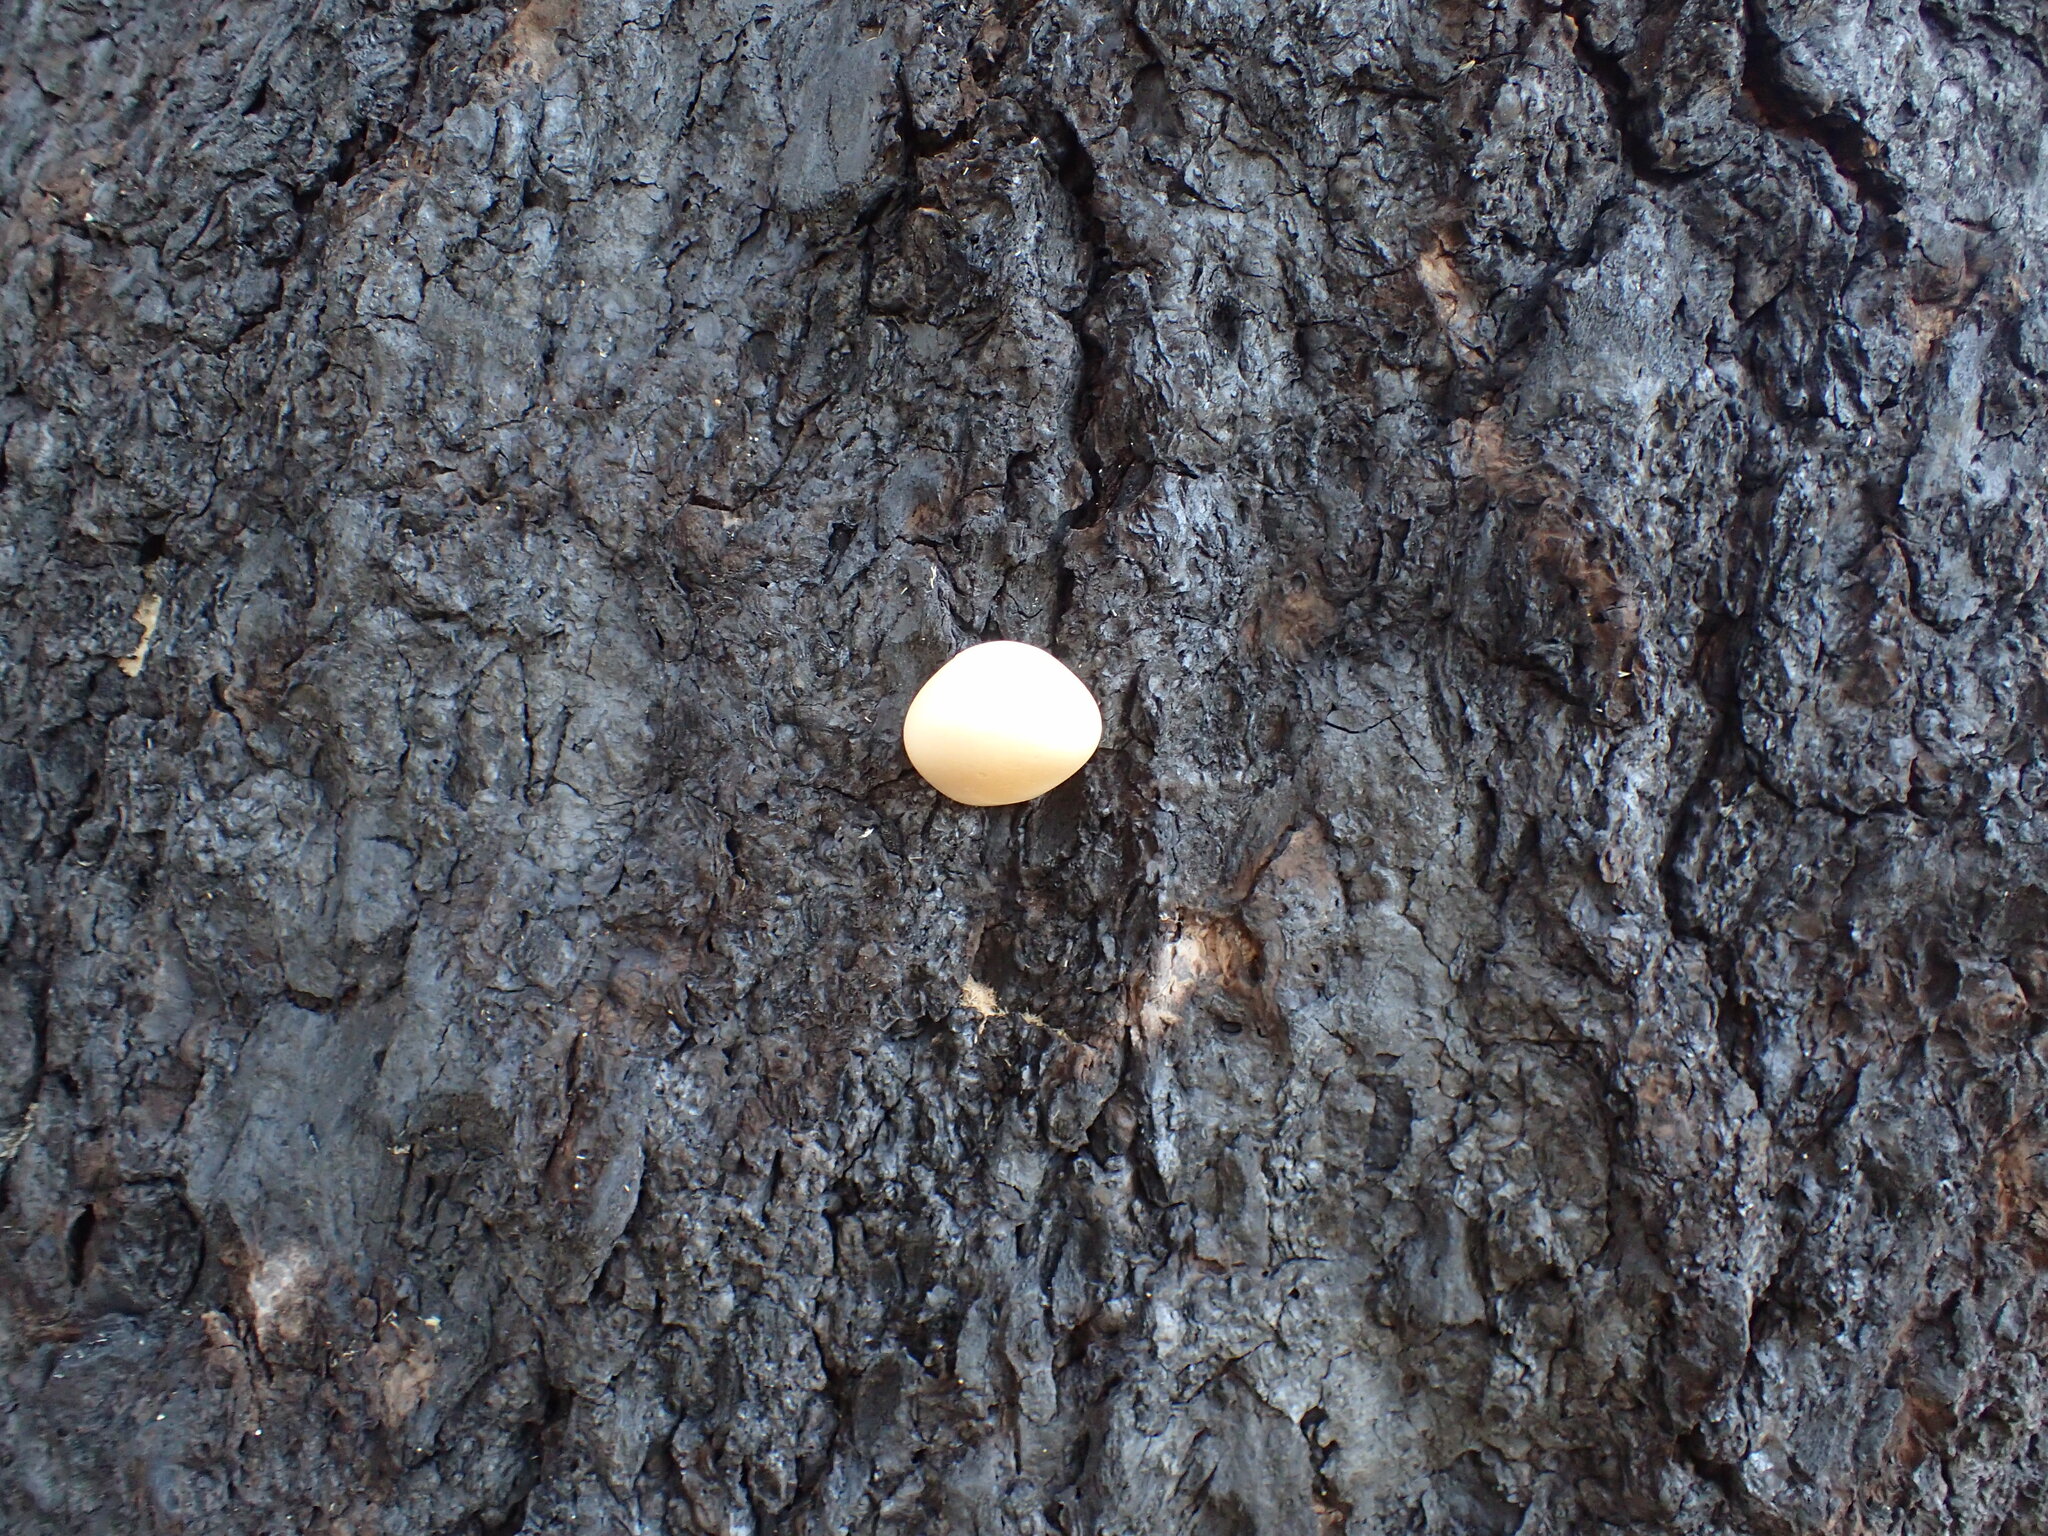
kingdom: Fungi
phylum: Basidiomycota
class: Agaricomycetes
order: Polyporales
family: Polyporaceae
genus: Cryptoporus
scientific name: Cryptoporus volvatus
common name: Veiled polypore
